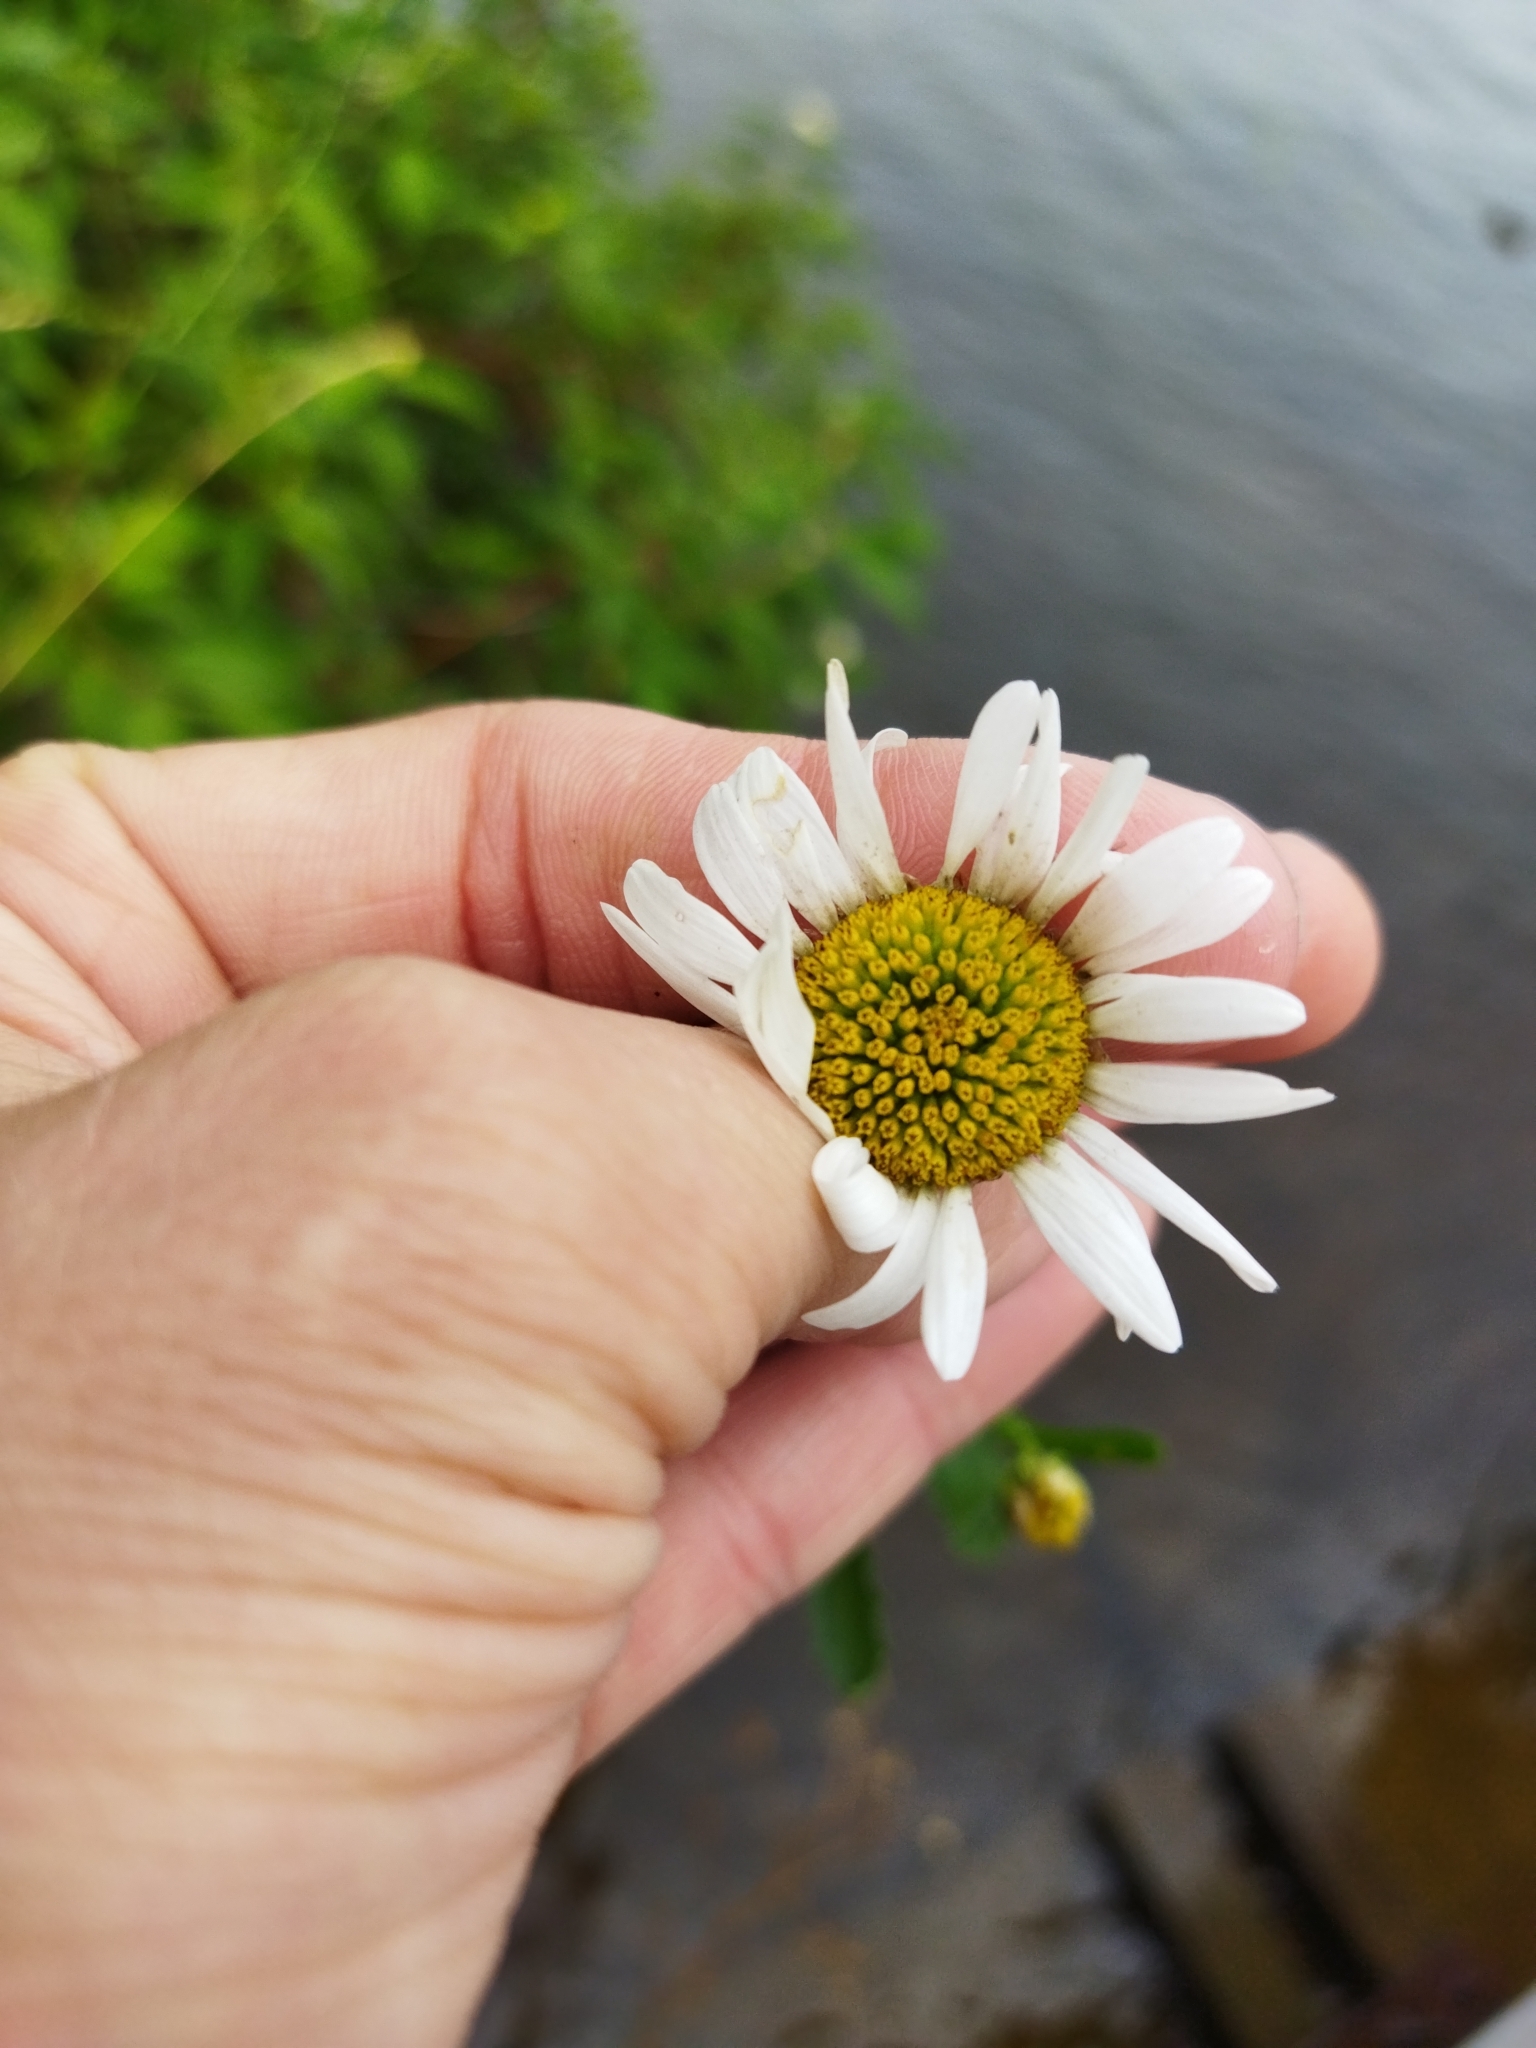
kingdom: Plantae
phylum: Tracheophyta
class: Magnoliopsida
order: Asterales
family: Asteraceae
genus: Leucanthemum
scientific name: Leucanthemum vulgare
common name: Oxeye daisy
